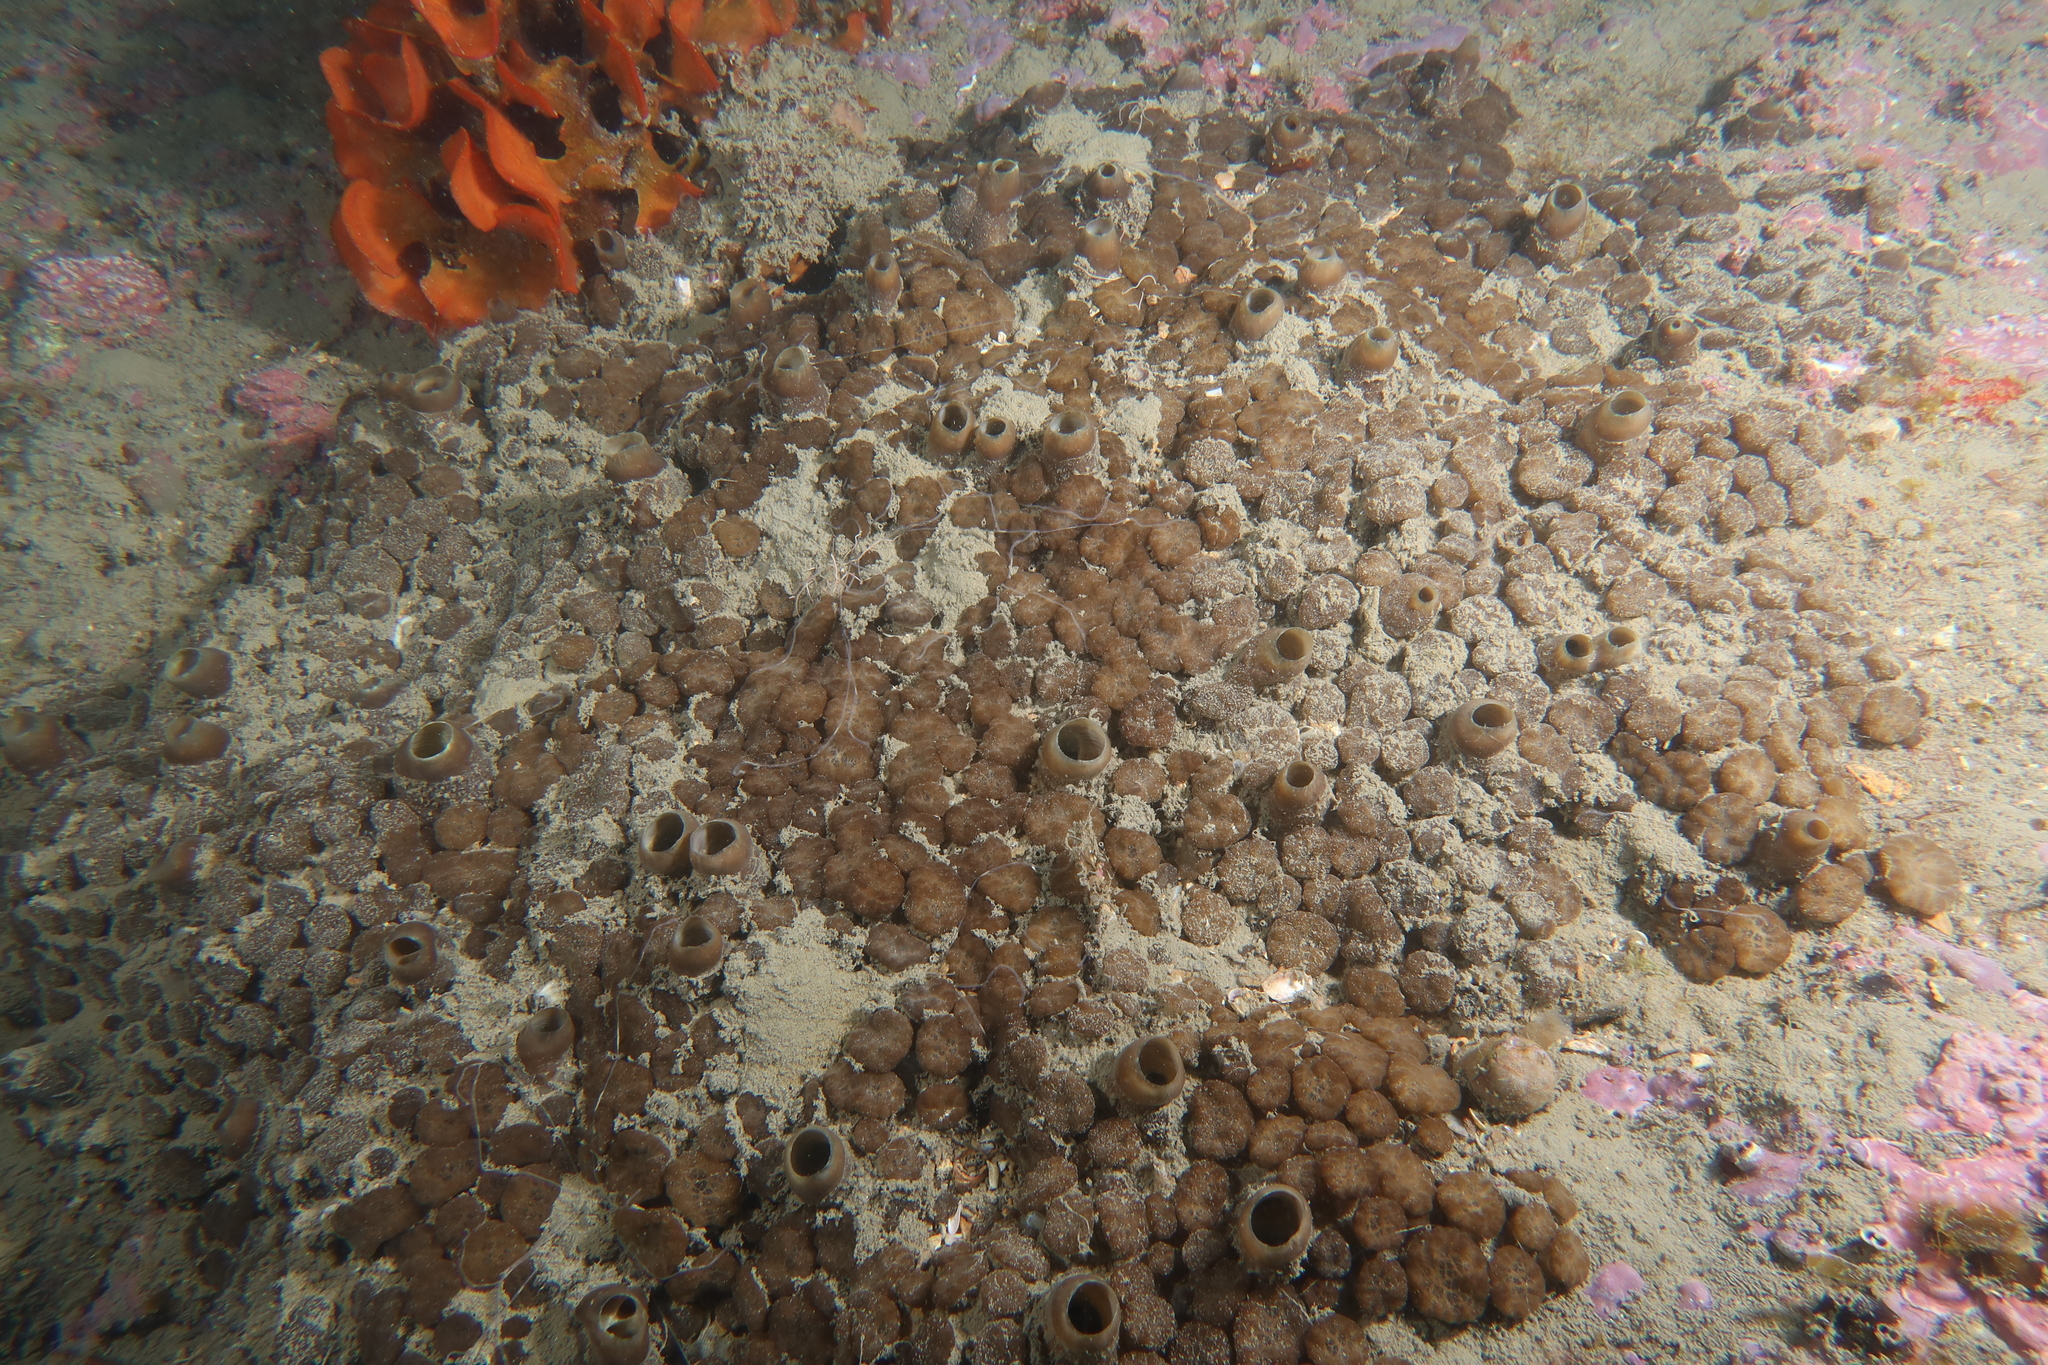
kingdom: Animalia
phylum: Porifera
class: Demospongiae
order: Clionaida
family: Clionaidae
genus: Cliona
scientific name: Cliona viridis
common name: Green boring sponge
